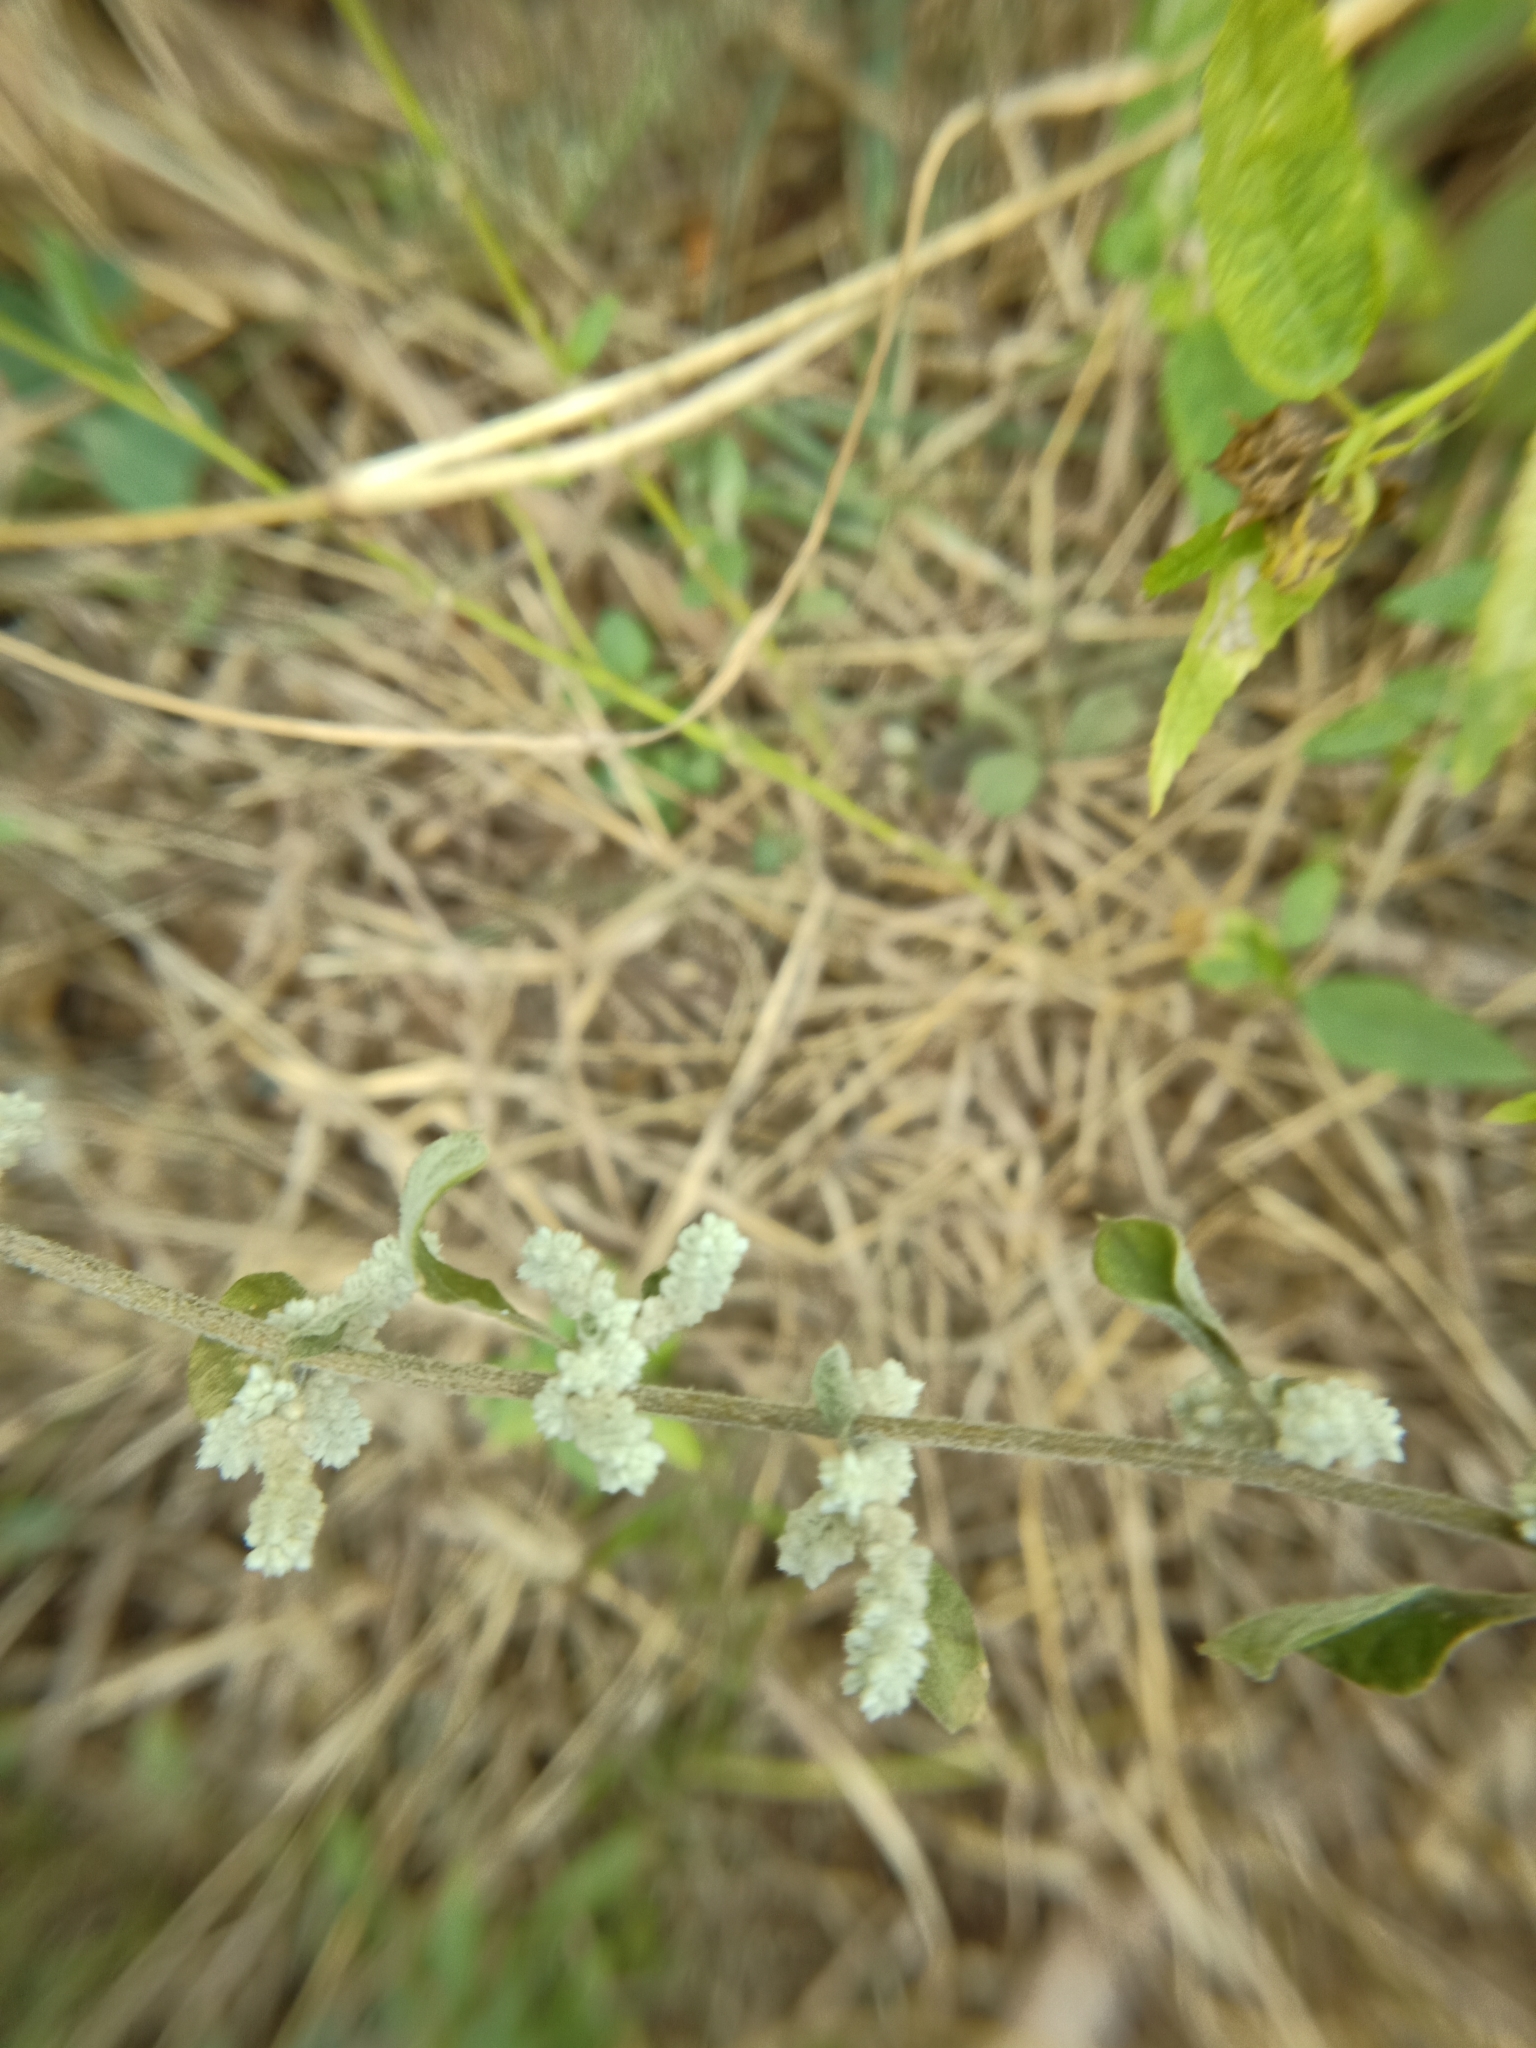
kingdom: Plantae
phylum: Tracheophyta
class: Magnoliopsida
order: Caryophyllales
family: Amaranthaceae
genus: Ouret
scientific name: Ouret lanata
